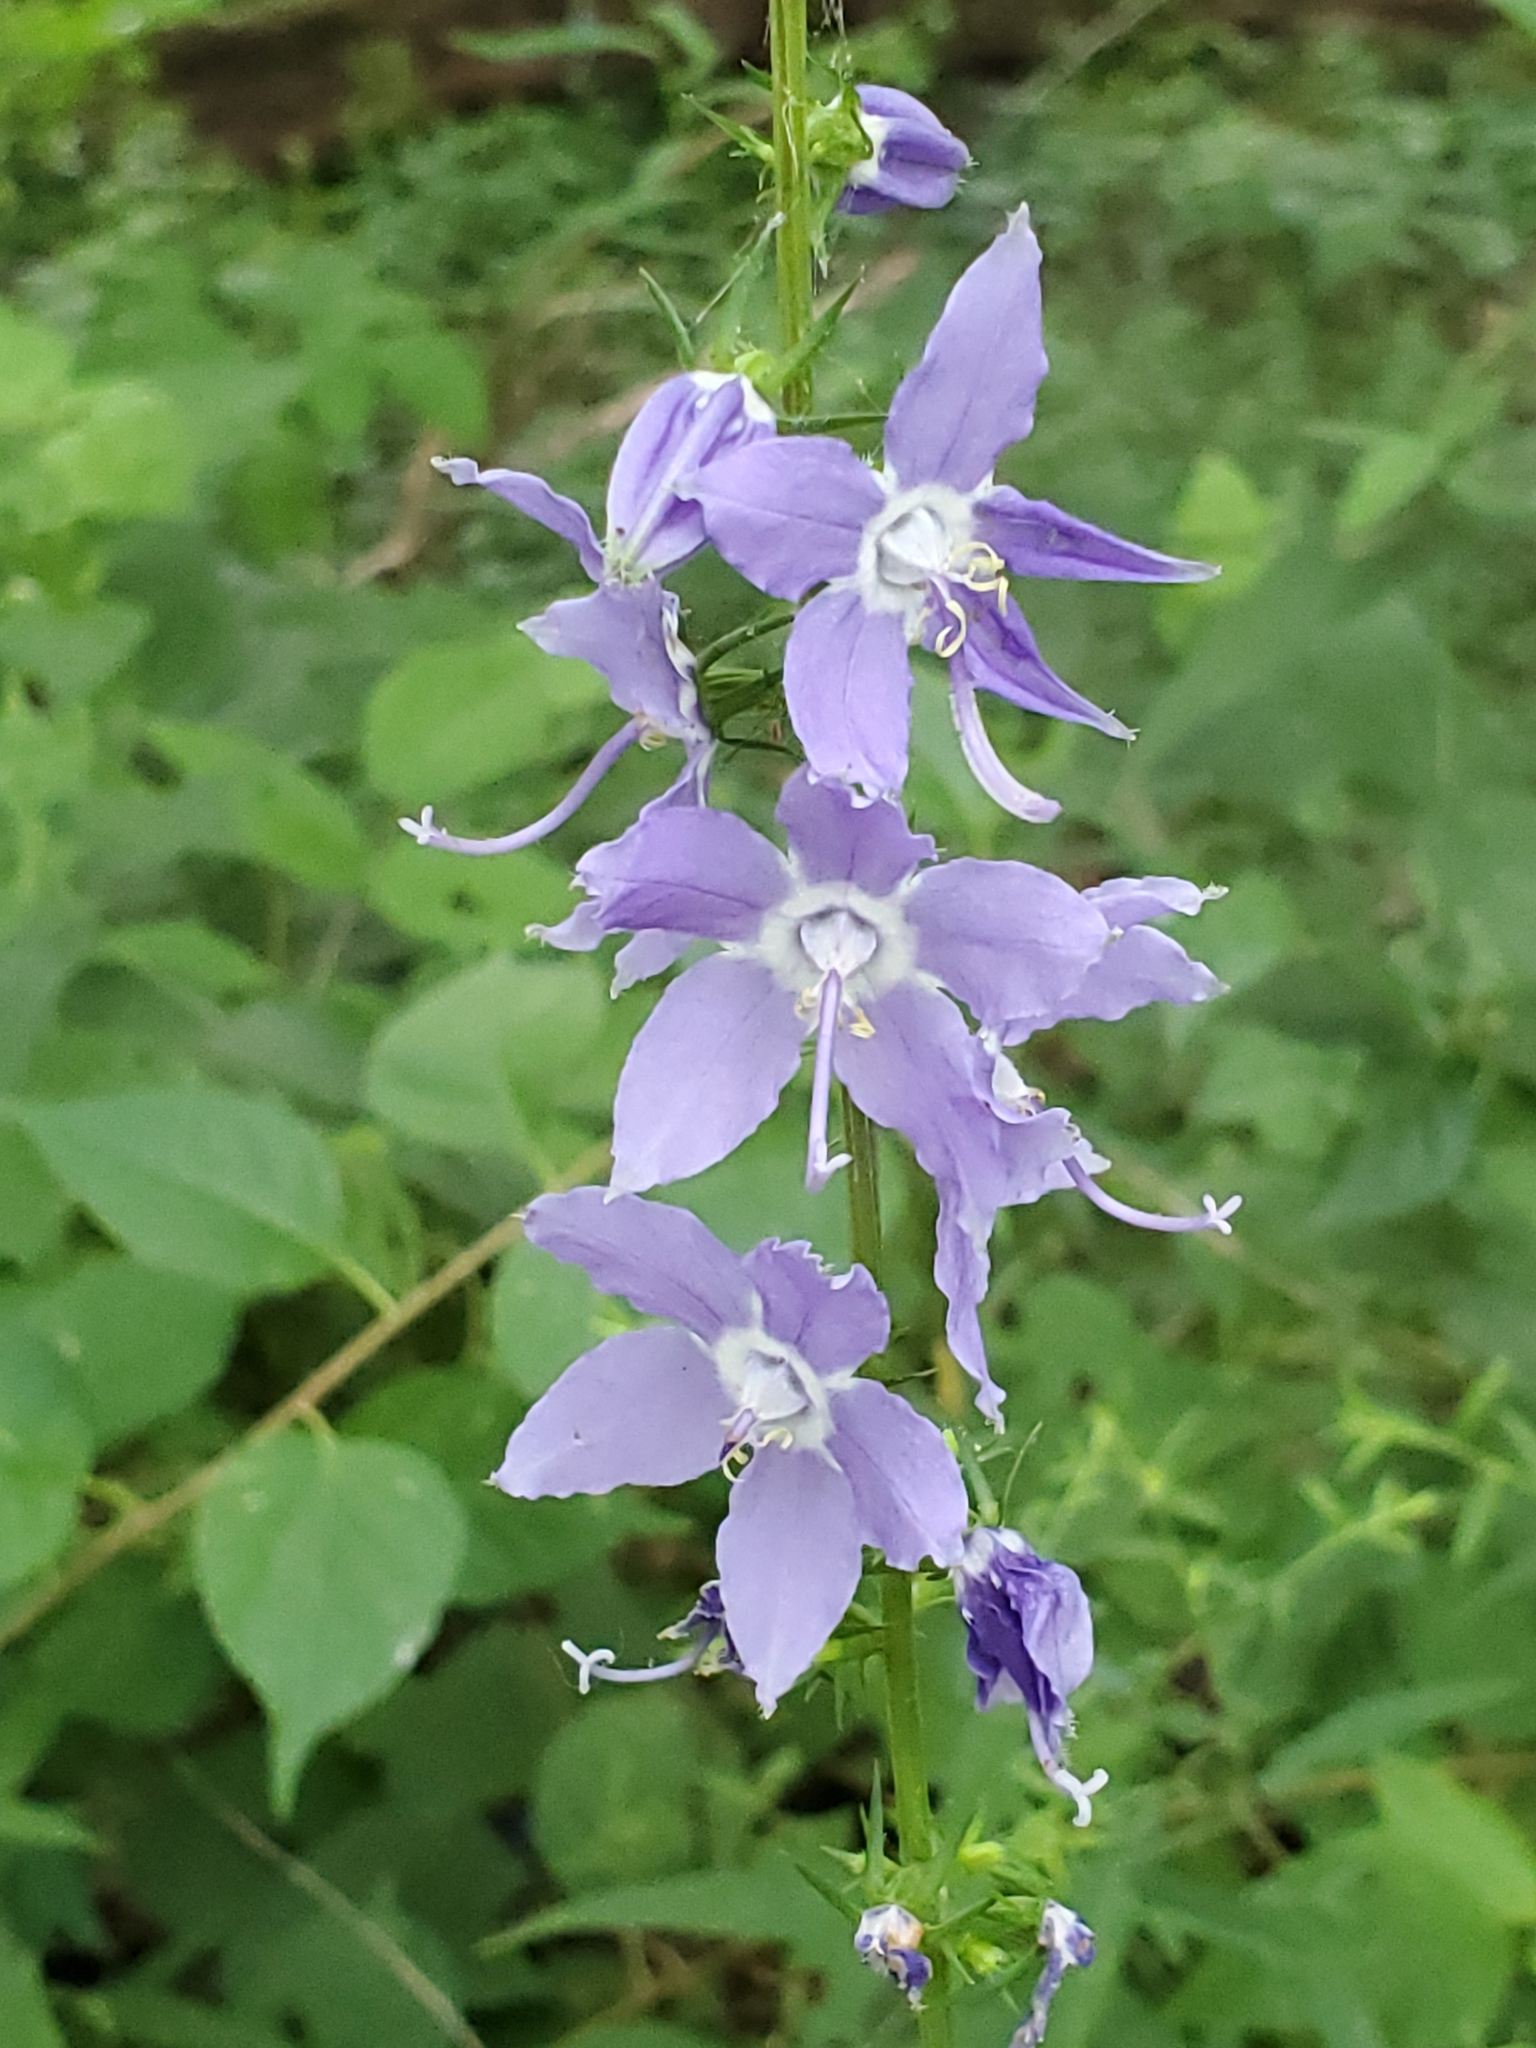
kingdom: Plantae
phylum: Tracheophyta
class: Magnoliopsida
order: Asterales
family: Campanulaceae
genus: Campanulastrum
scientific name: Campanulastrum americanum
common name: American bellflower
